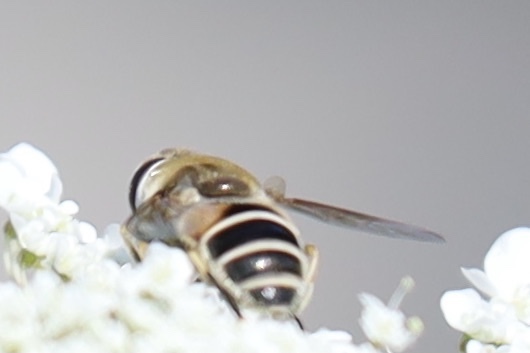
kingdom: Animalia
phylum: Arthropoda
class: Insecta
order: Diptera
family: Syrphidae
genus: Eristalis
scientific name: Eristalis arbustorum
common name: Hover fly
